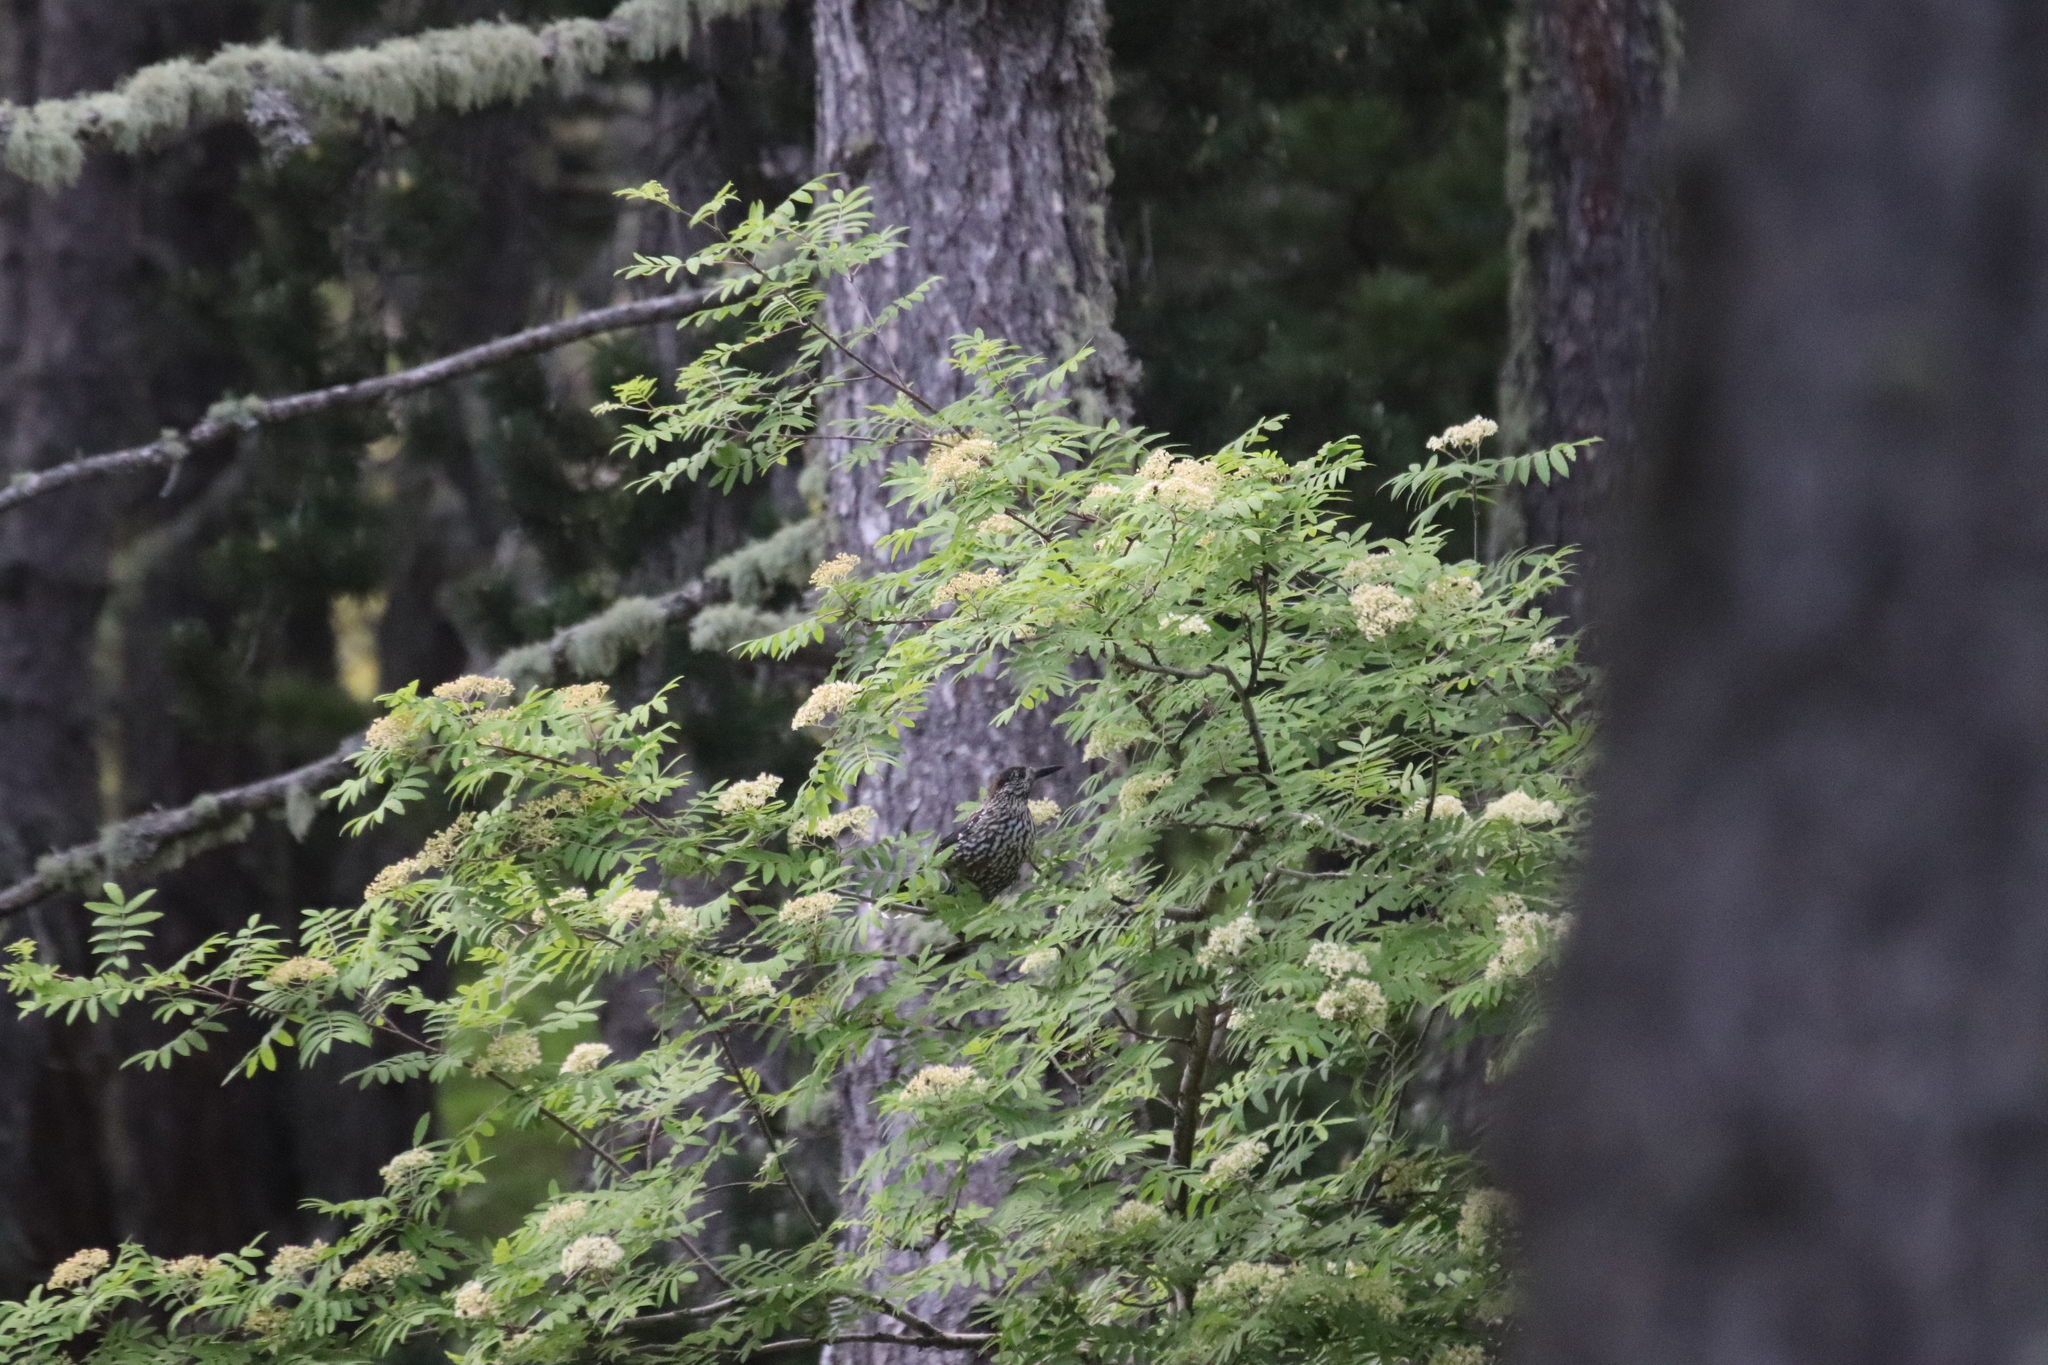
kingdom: Animalia
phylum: Chordata
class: Aves
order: Passeriformes
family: Corvidae
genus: Nucifraga
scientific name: Nucifraga caryocatactes
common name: Spotted nutcracker
